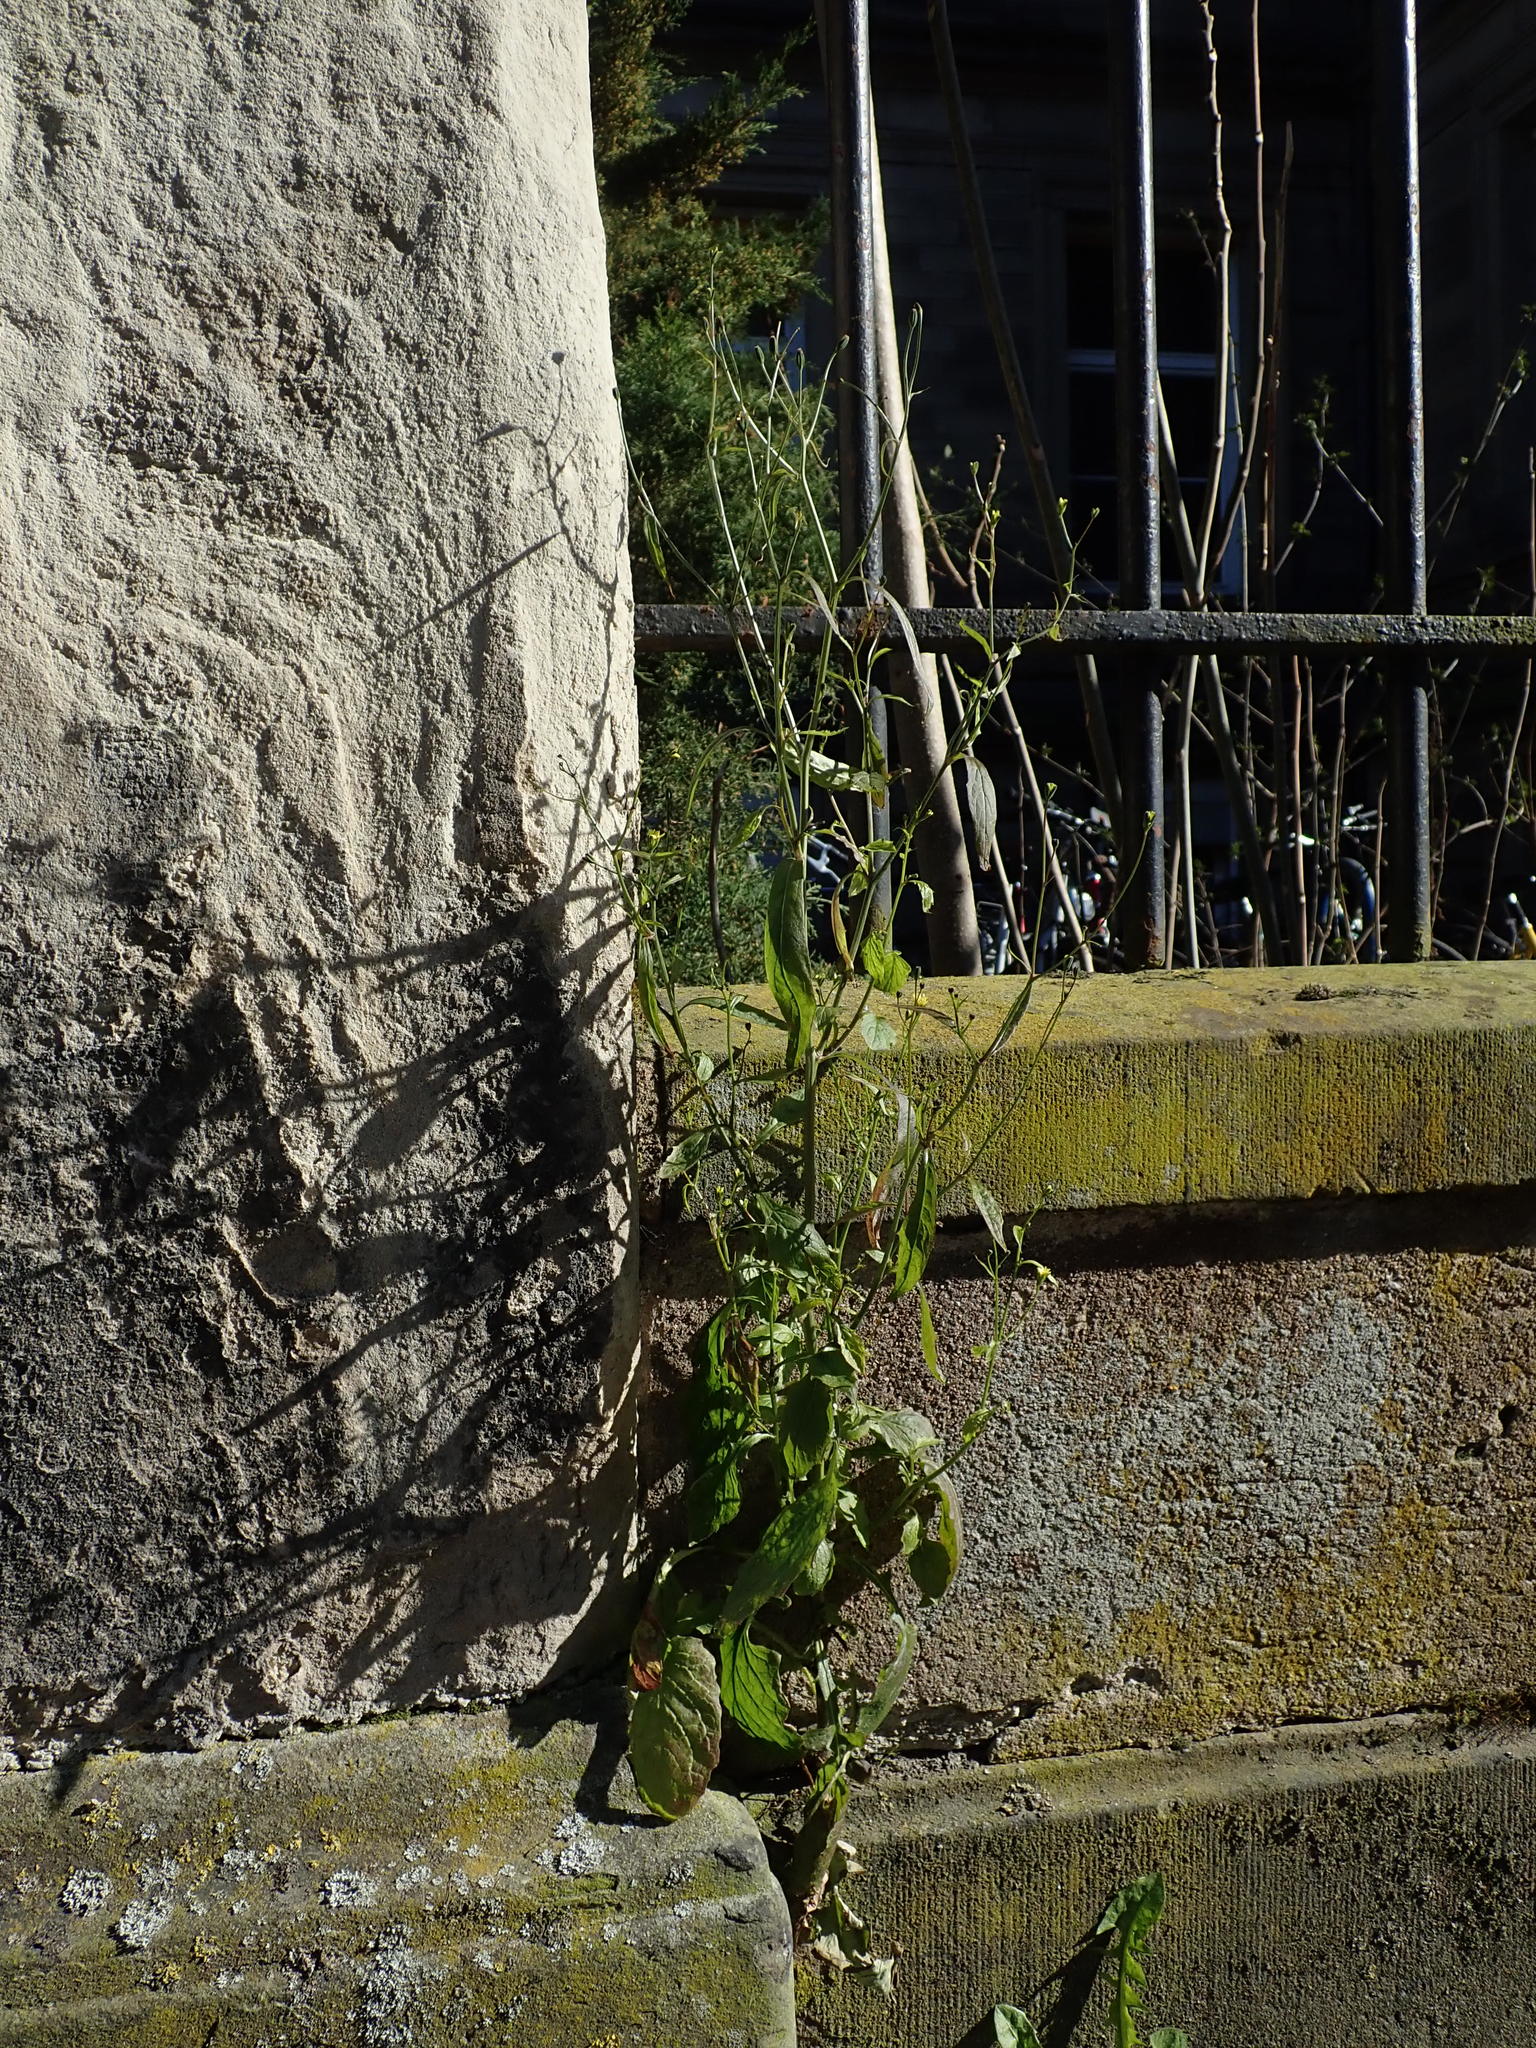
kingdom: Plantae
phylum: Tracheophyta
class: Magnoliopsida
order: Asterales
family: Asteraceae
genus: Lapsana
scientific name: Lapsana communis
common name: Nipplewort
